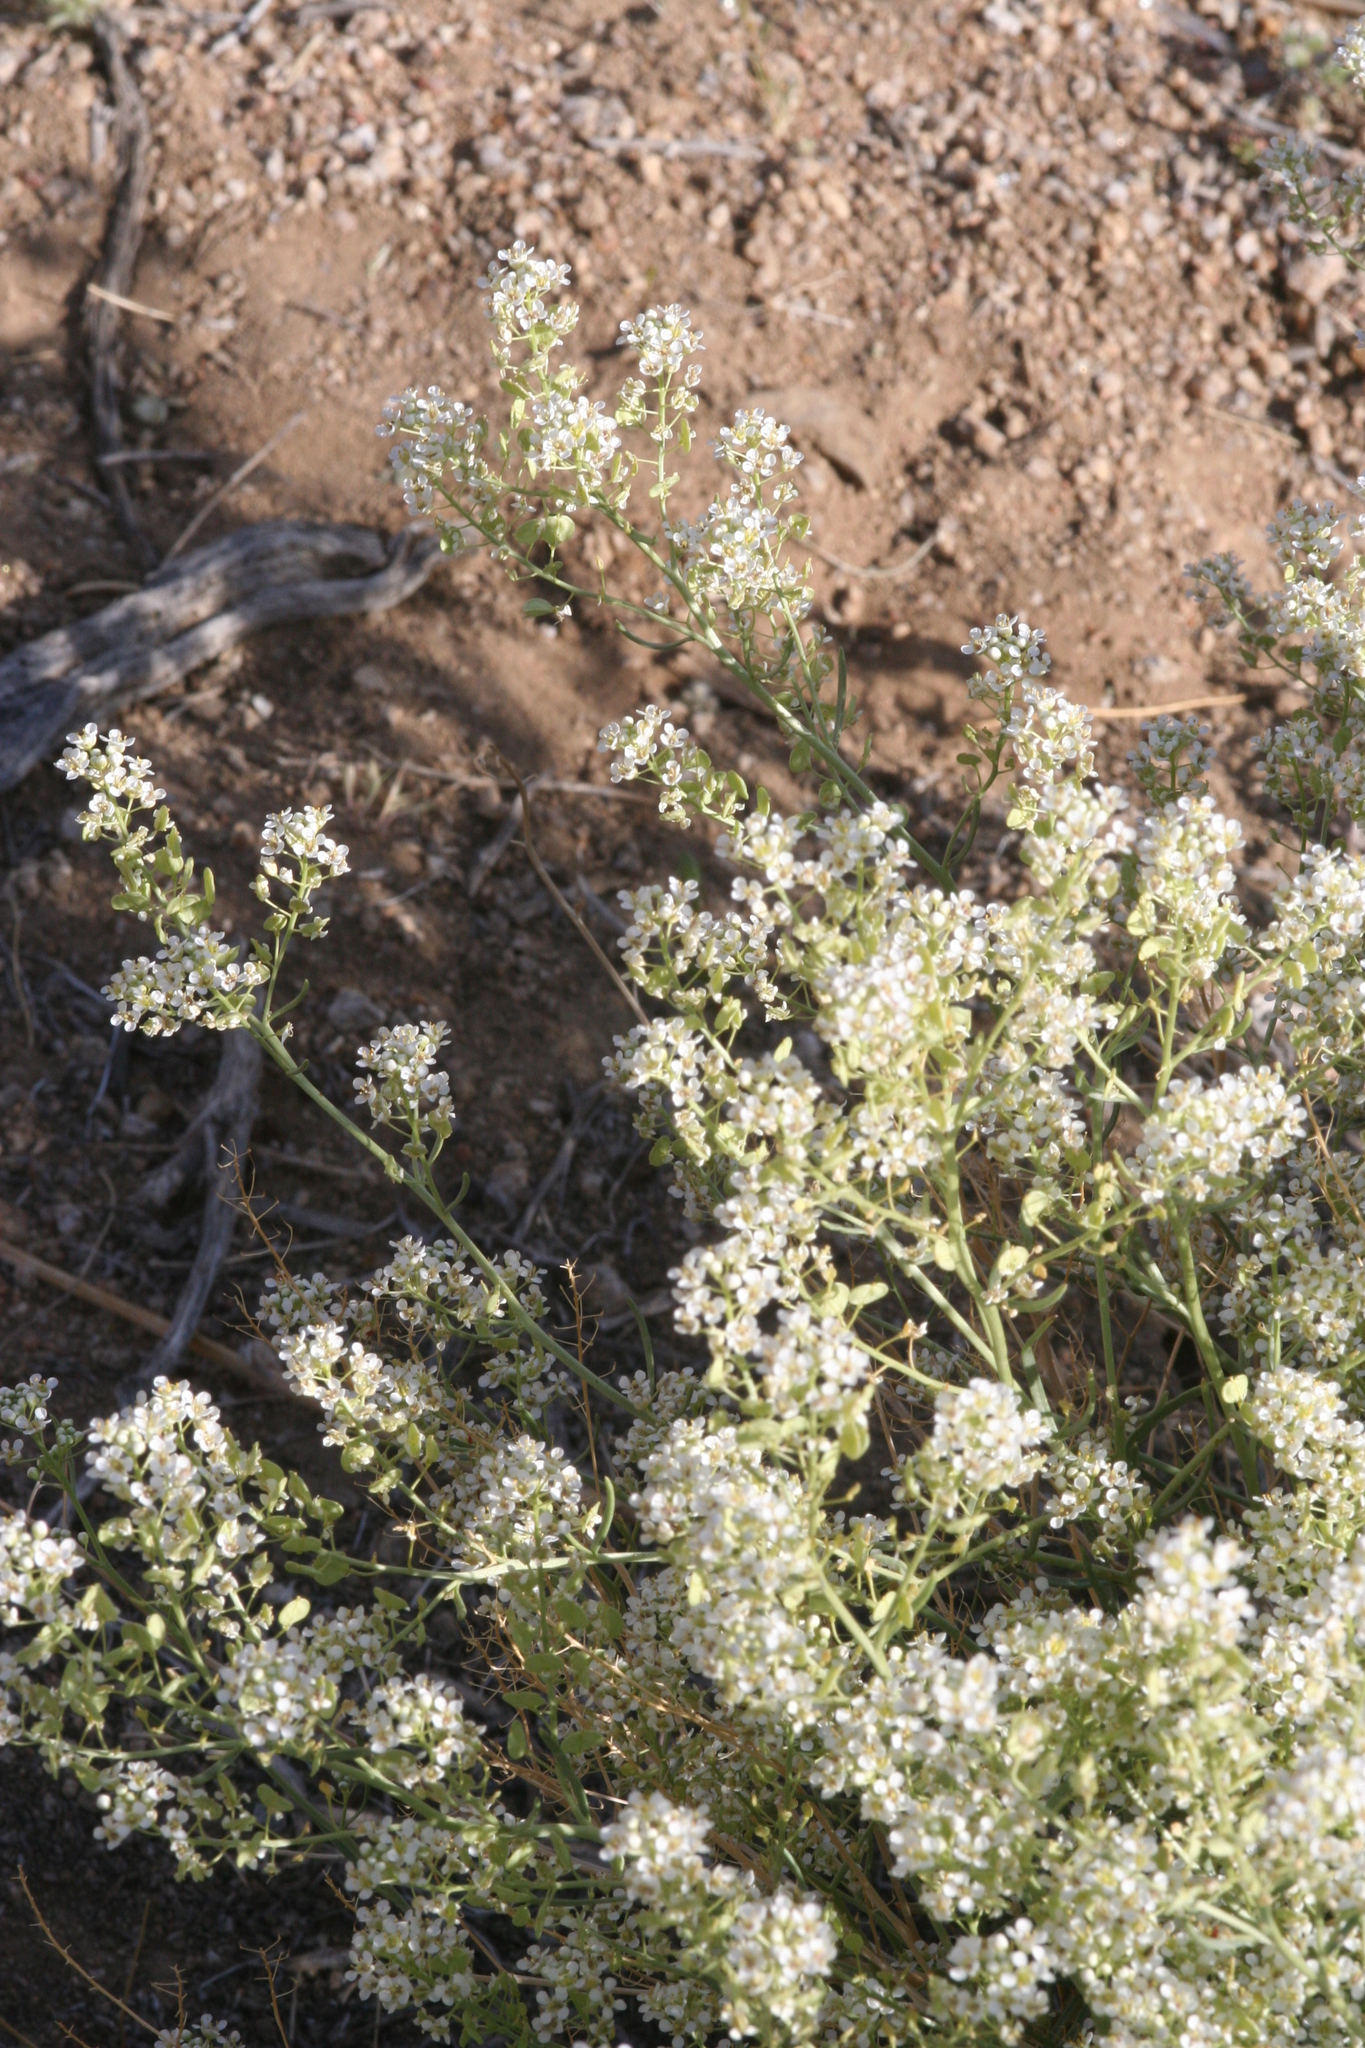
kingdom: Plantae
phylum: Tracheophyta
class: Magnoliopsida
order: Brassicales
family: Brassicaceae
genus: Lepidium
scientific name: Lepidium fremontii
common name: Fremont's pepperwort
